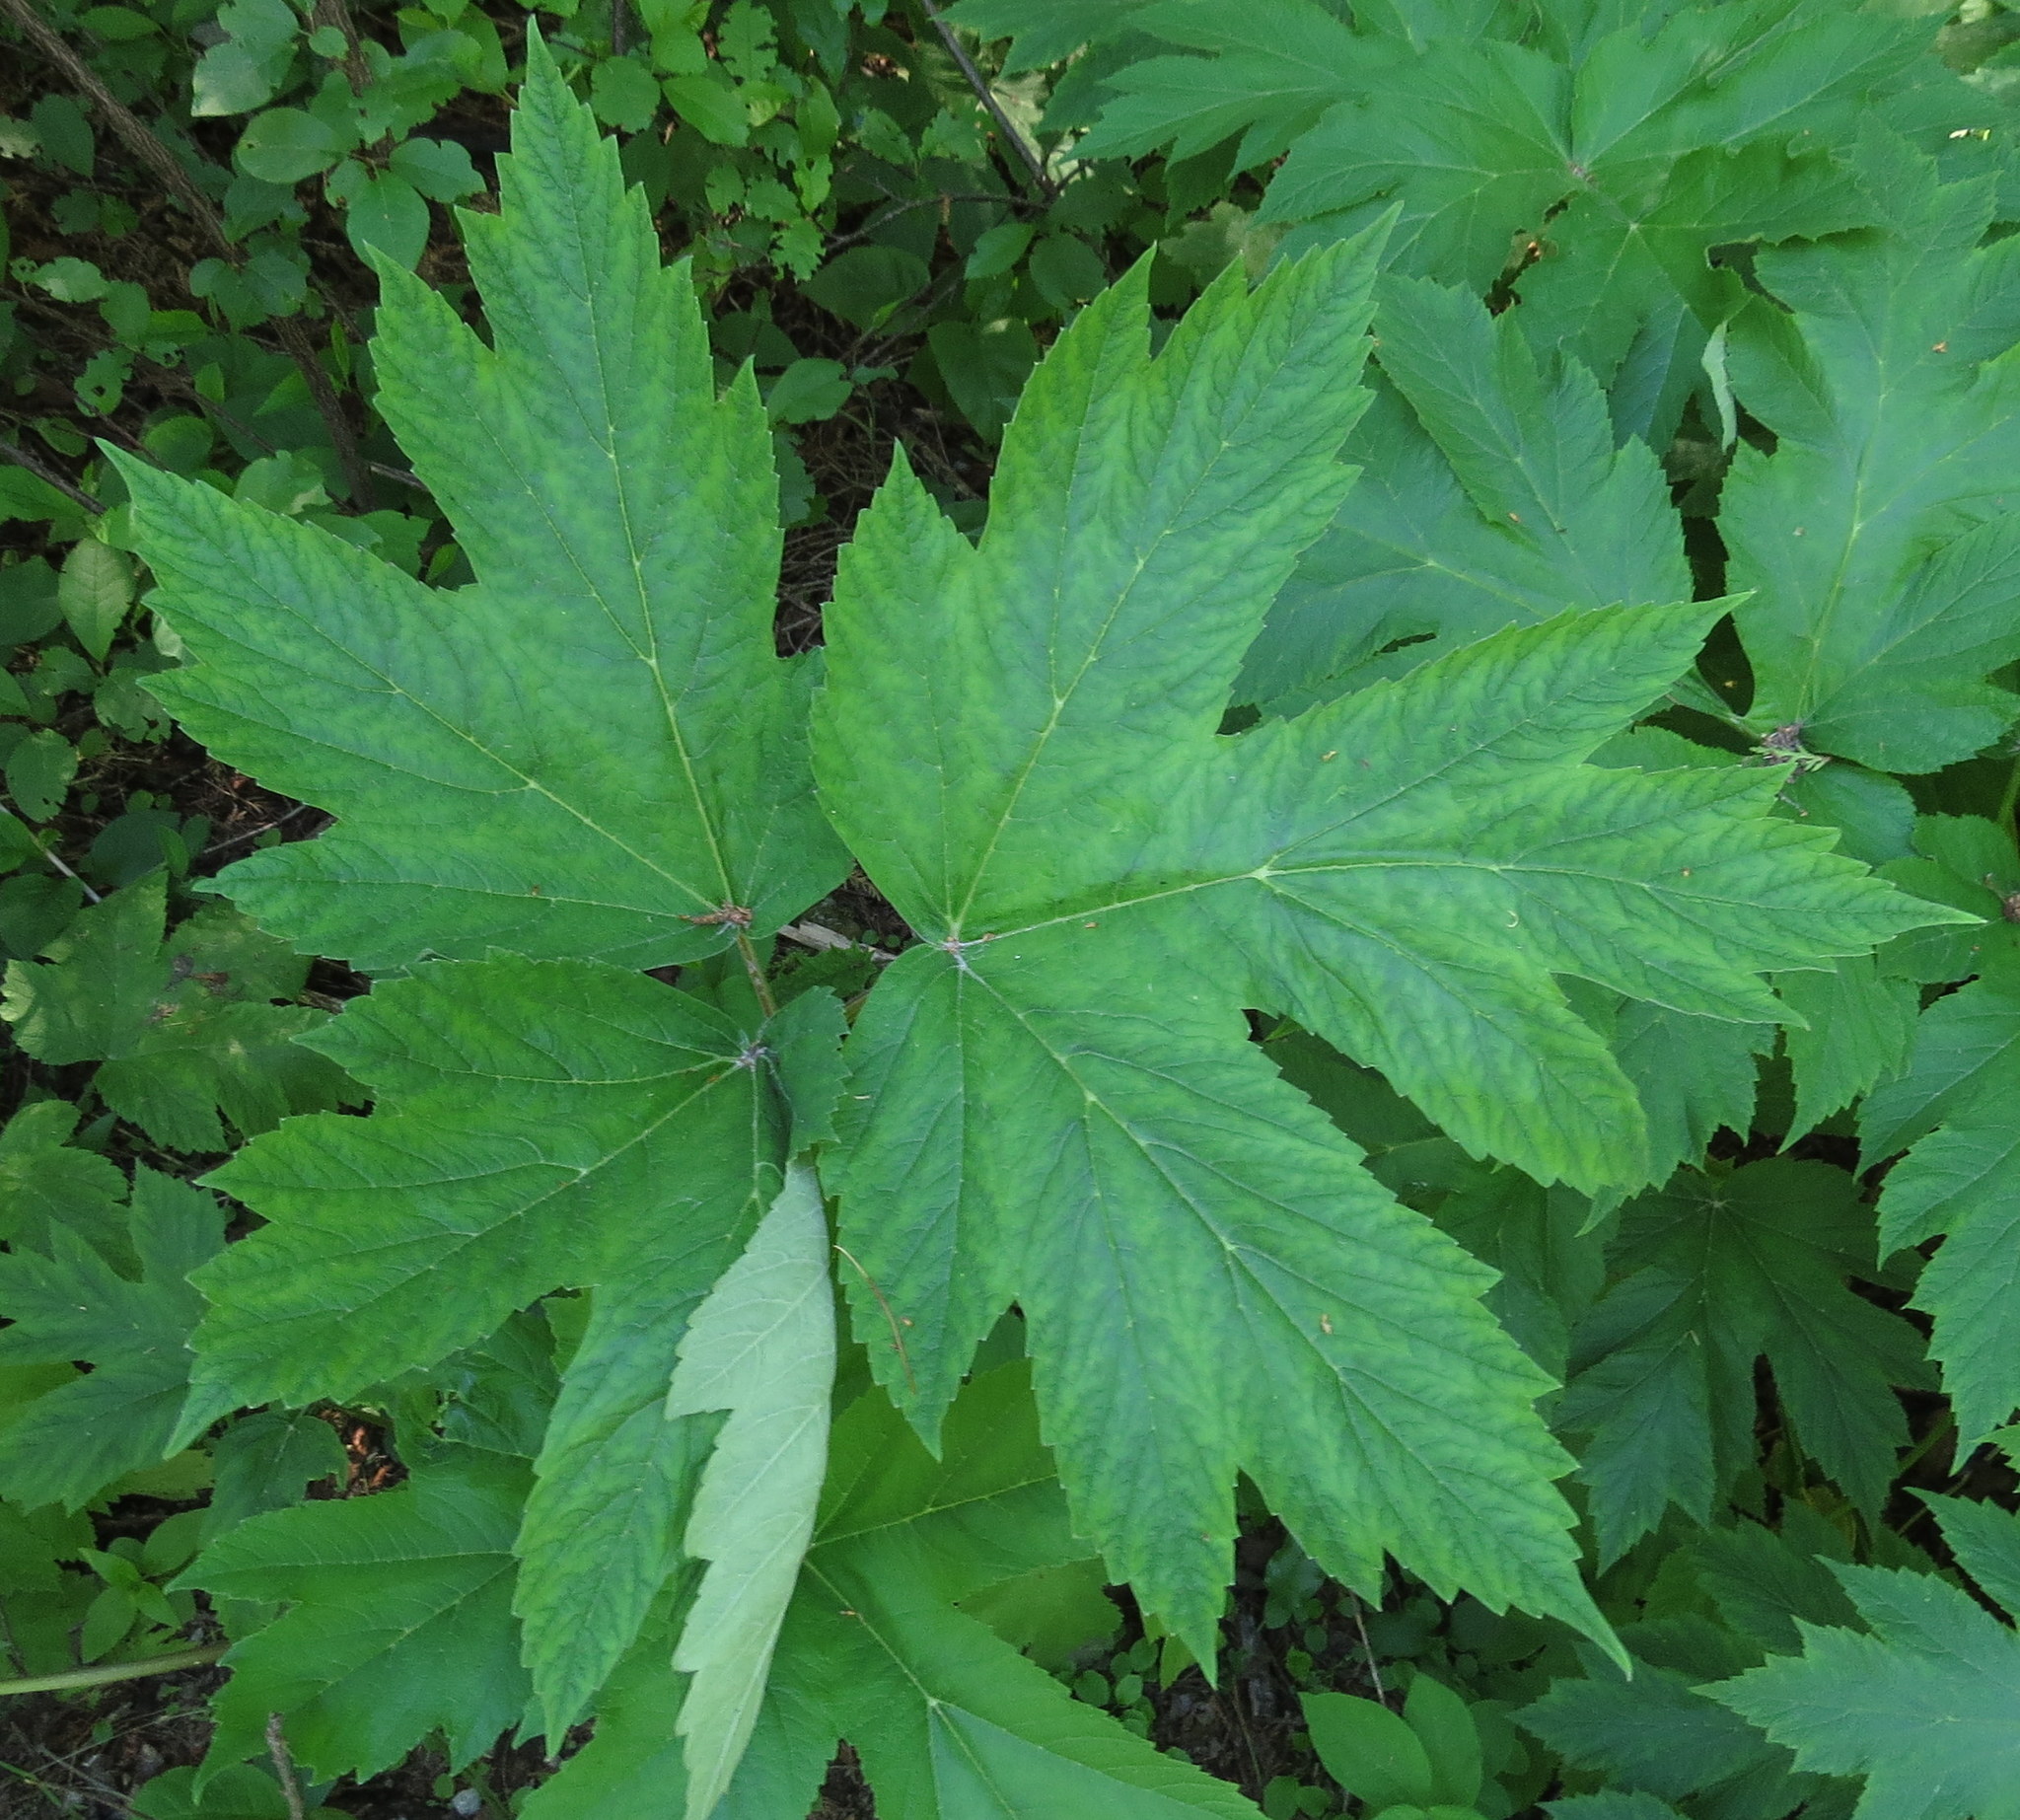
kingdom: Plantae
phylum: Tracheophyta
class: Magnoliopsida
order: Apiales
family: Apiaceae
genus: Heracleum
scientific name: Heracleum maximum
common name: American cow parsnip
